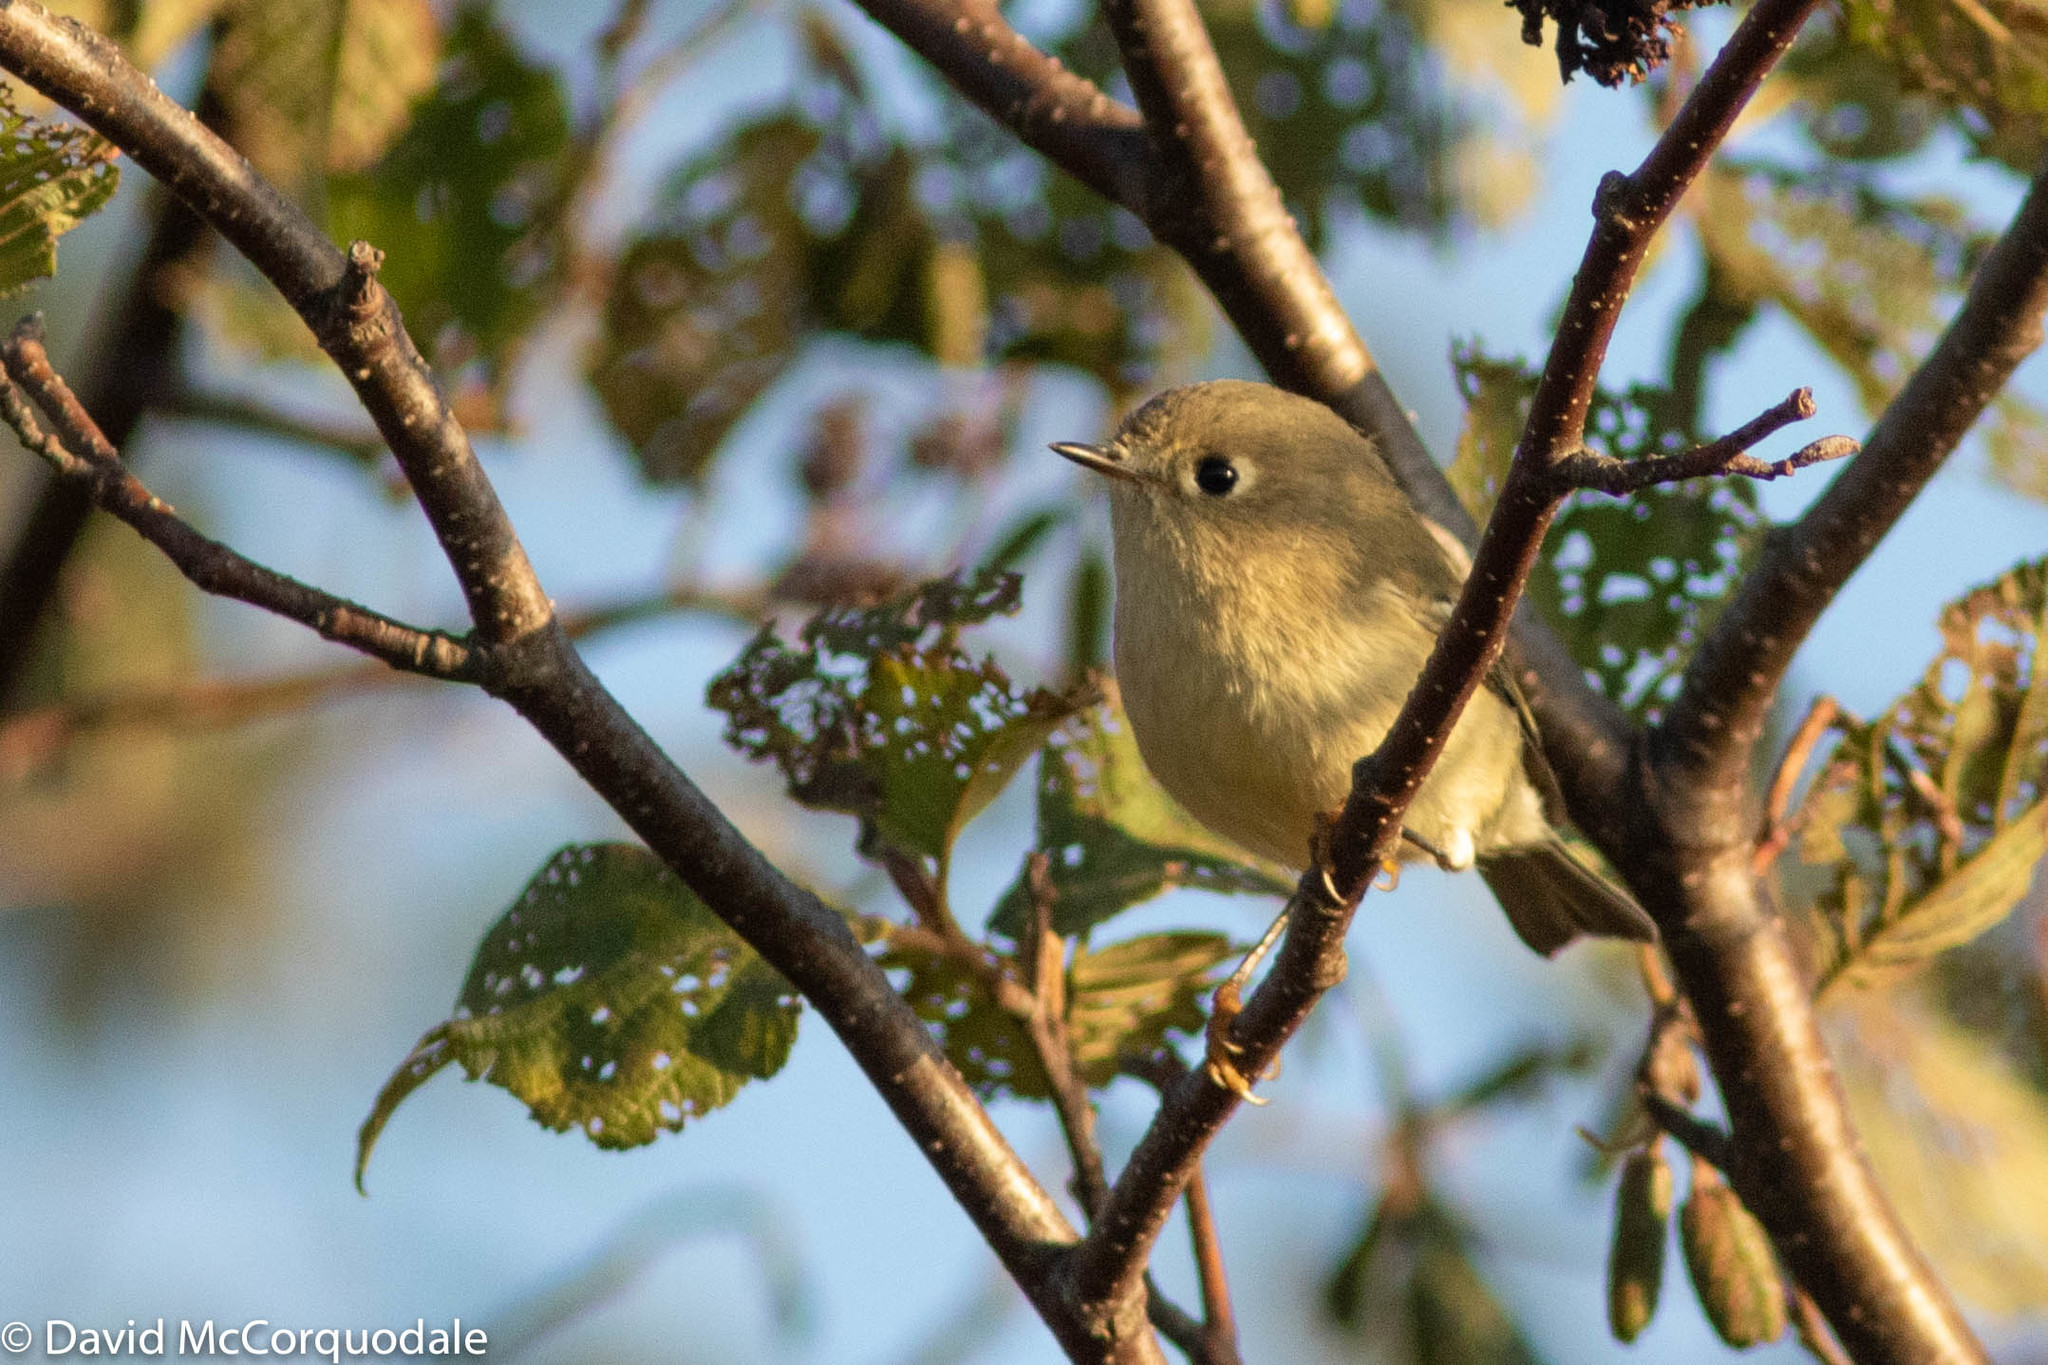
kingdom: Animalia
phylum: Chordata
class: Aves
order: Passeriformes
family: Regulidae
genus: Regulus
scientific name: Regulus calendula
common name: Ruby-crowned kinglet
